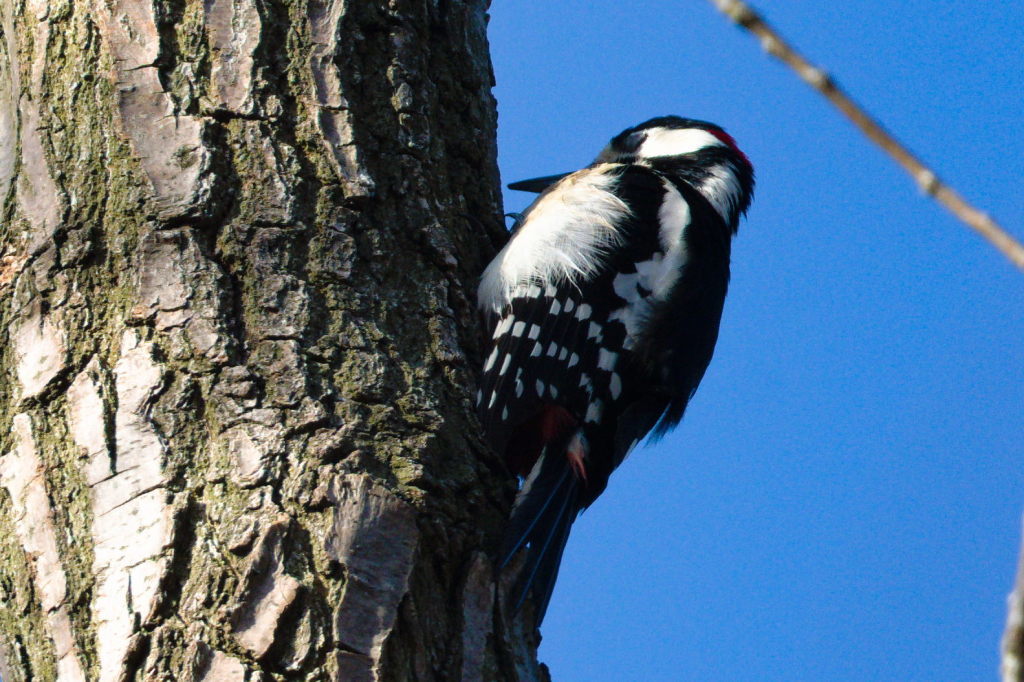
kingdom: Animalia
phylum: Chordata
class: Aves
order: Piciformes
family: Picidae
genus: Dendrocopos
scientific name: Dendrocopos major
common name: Great spotted woodpecker
